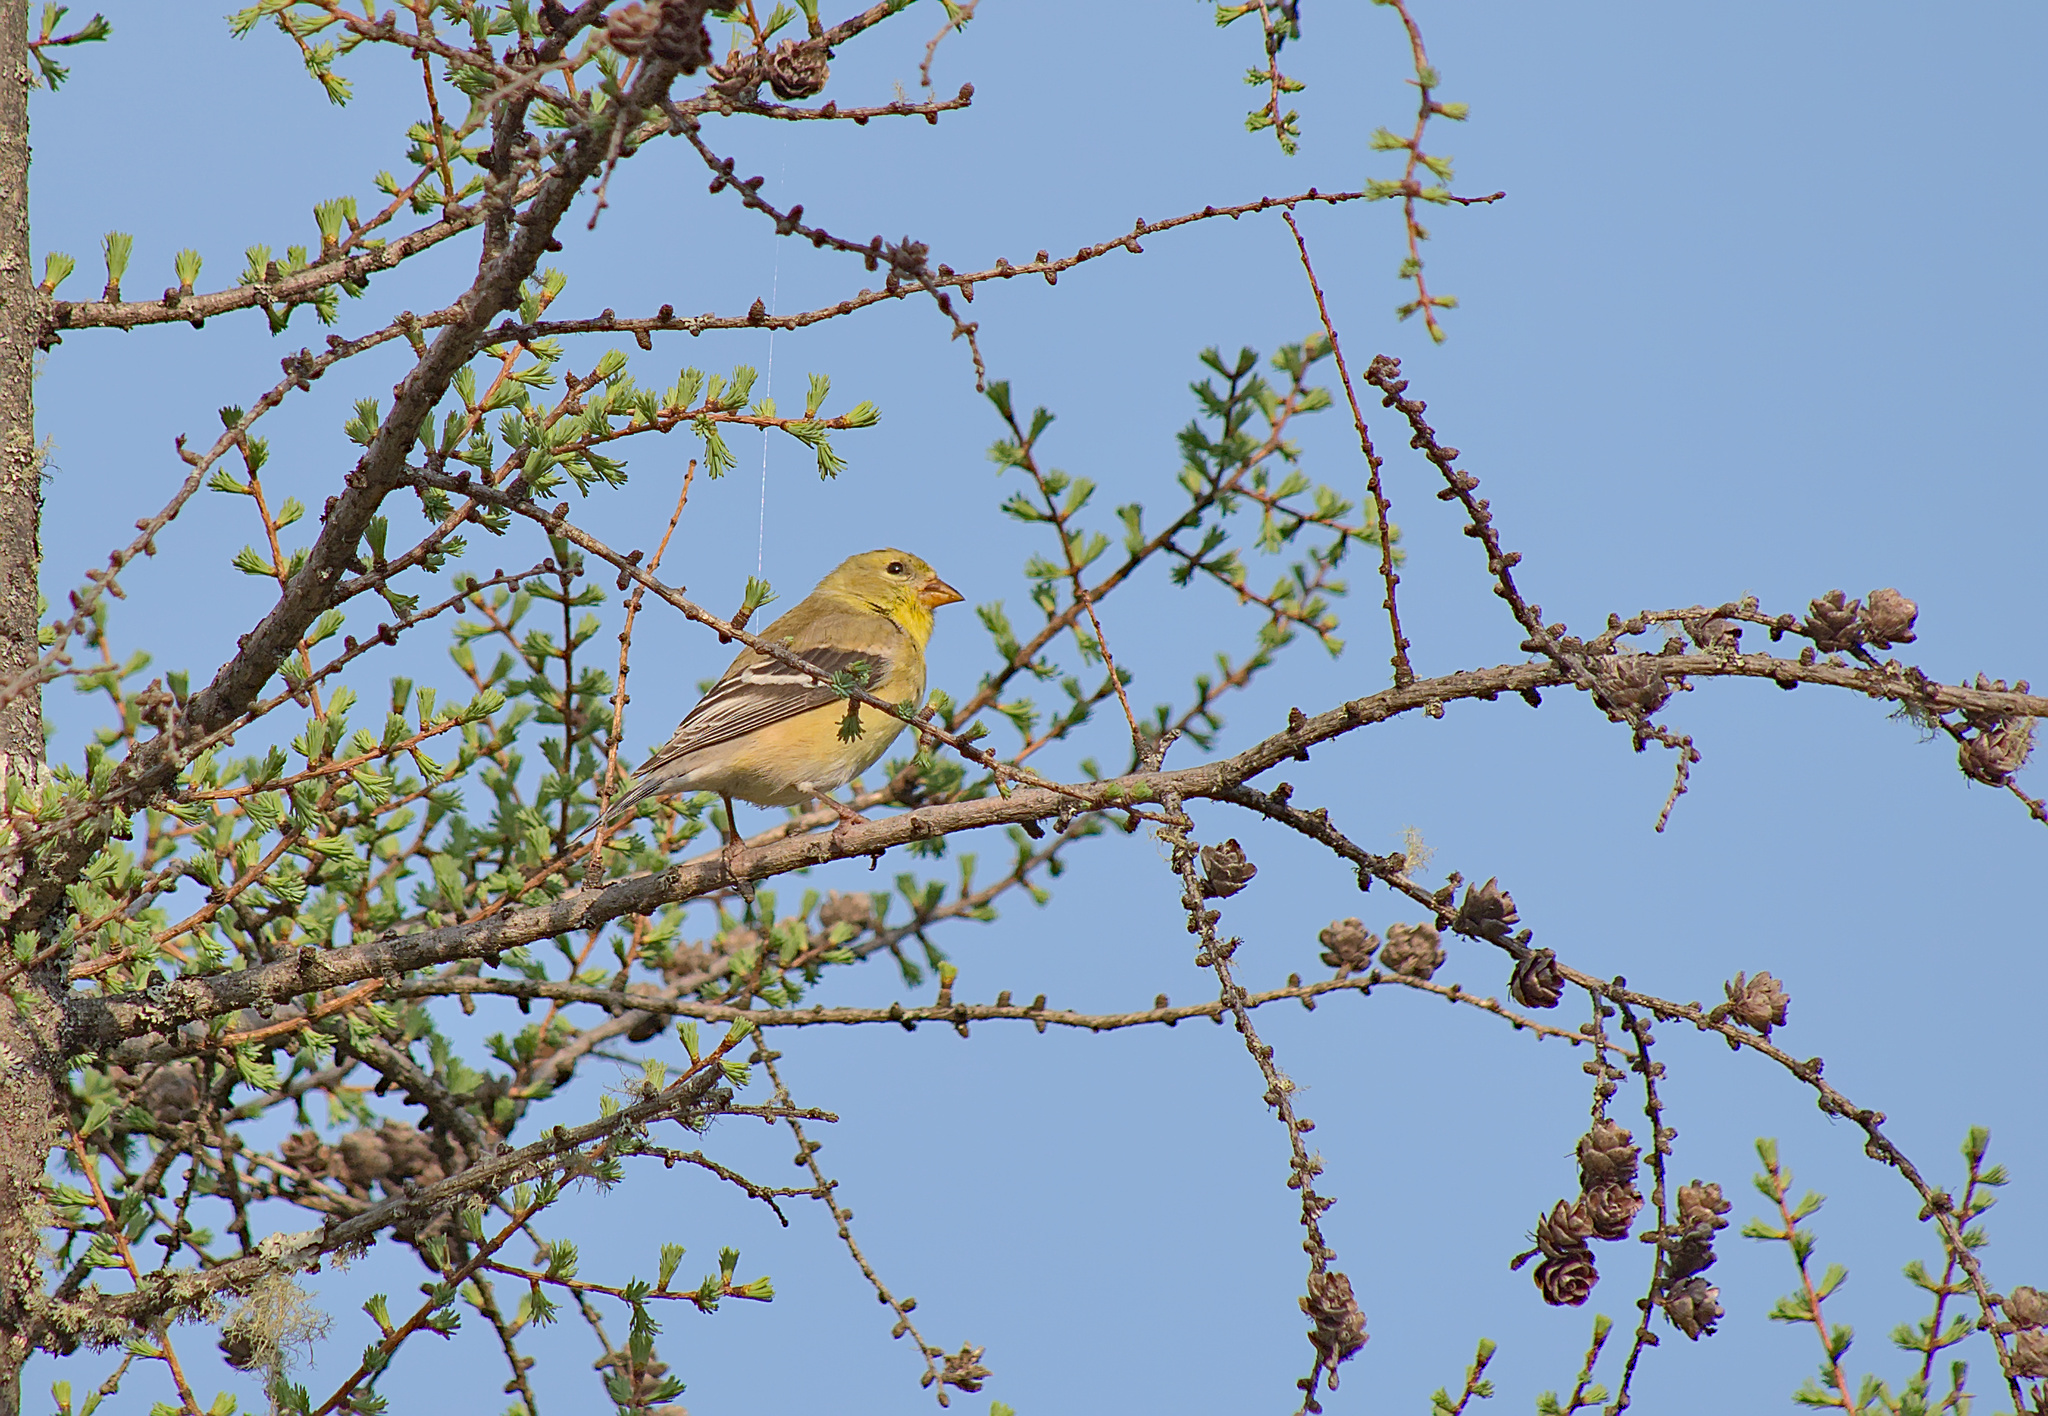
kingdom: Animalia
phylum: Chordata
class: Aves
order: Passeriformes
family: Fringillidae
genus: Spinus
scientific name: Spinus tristis
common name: American goldfinch
